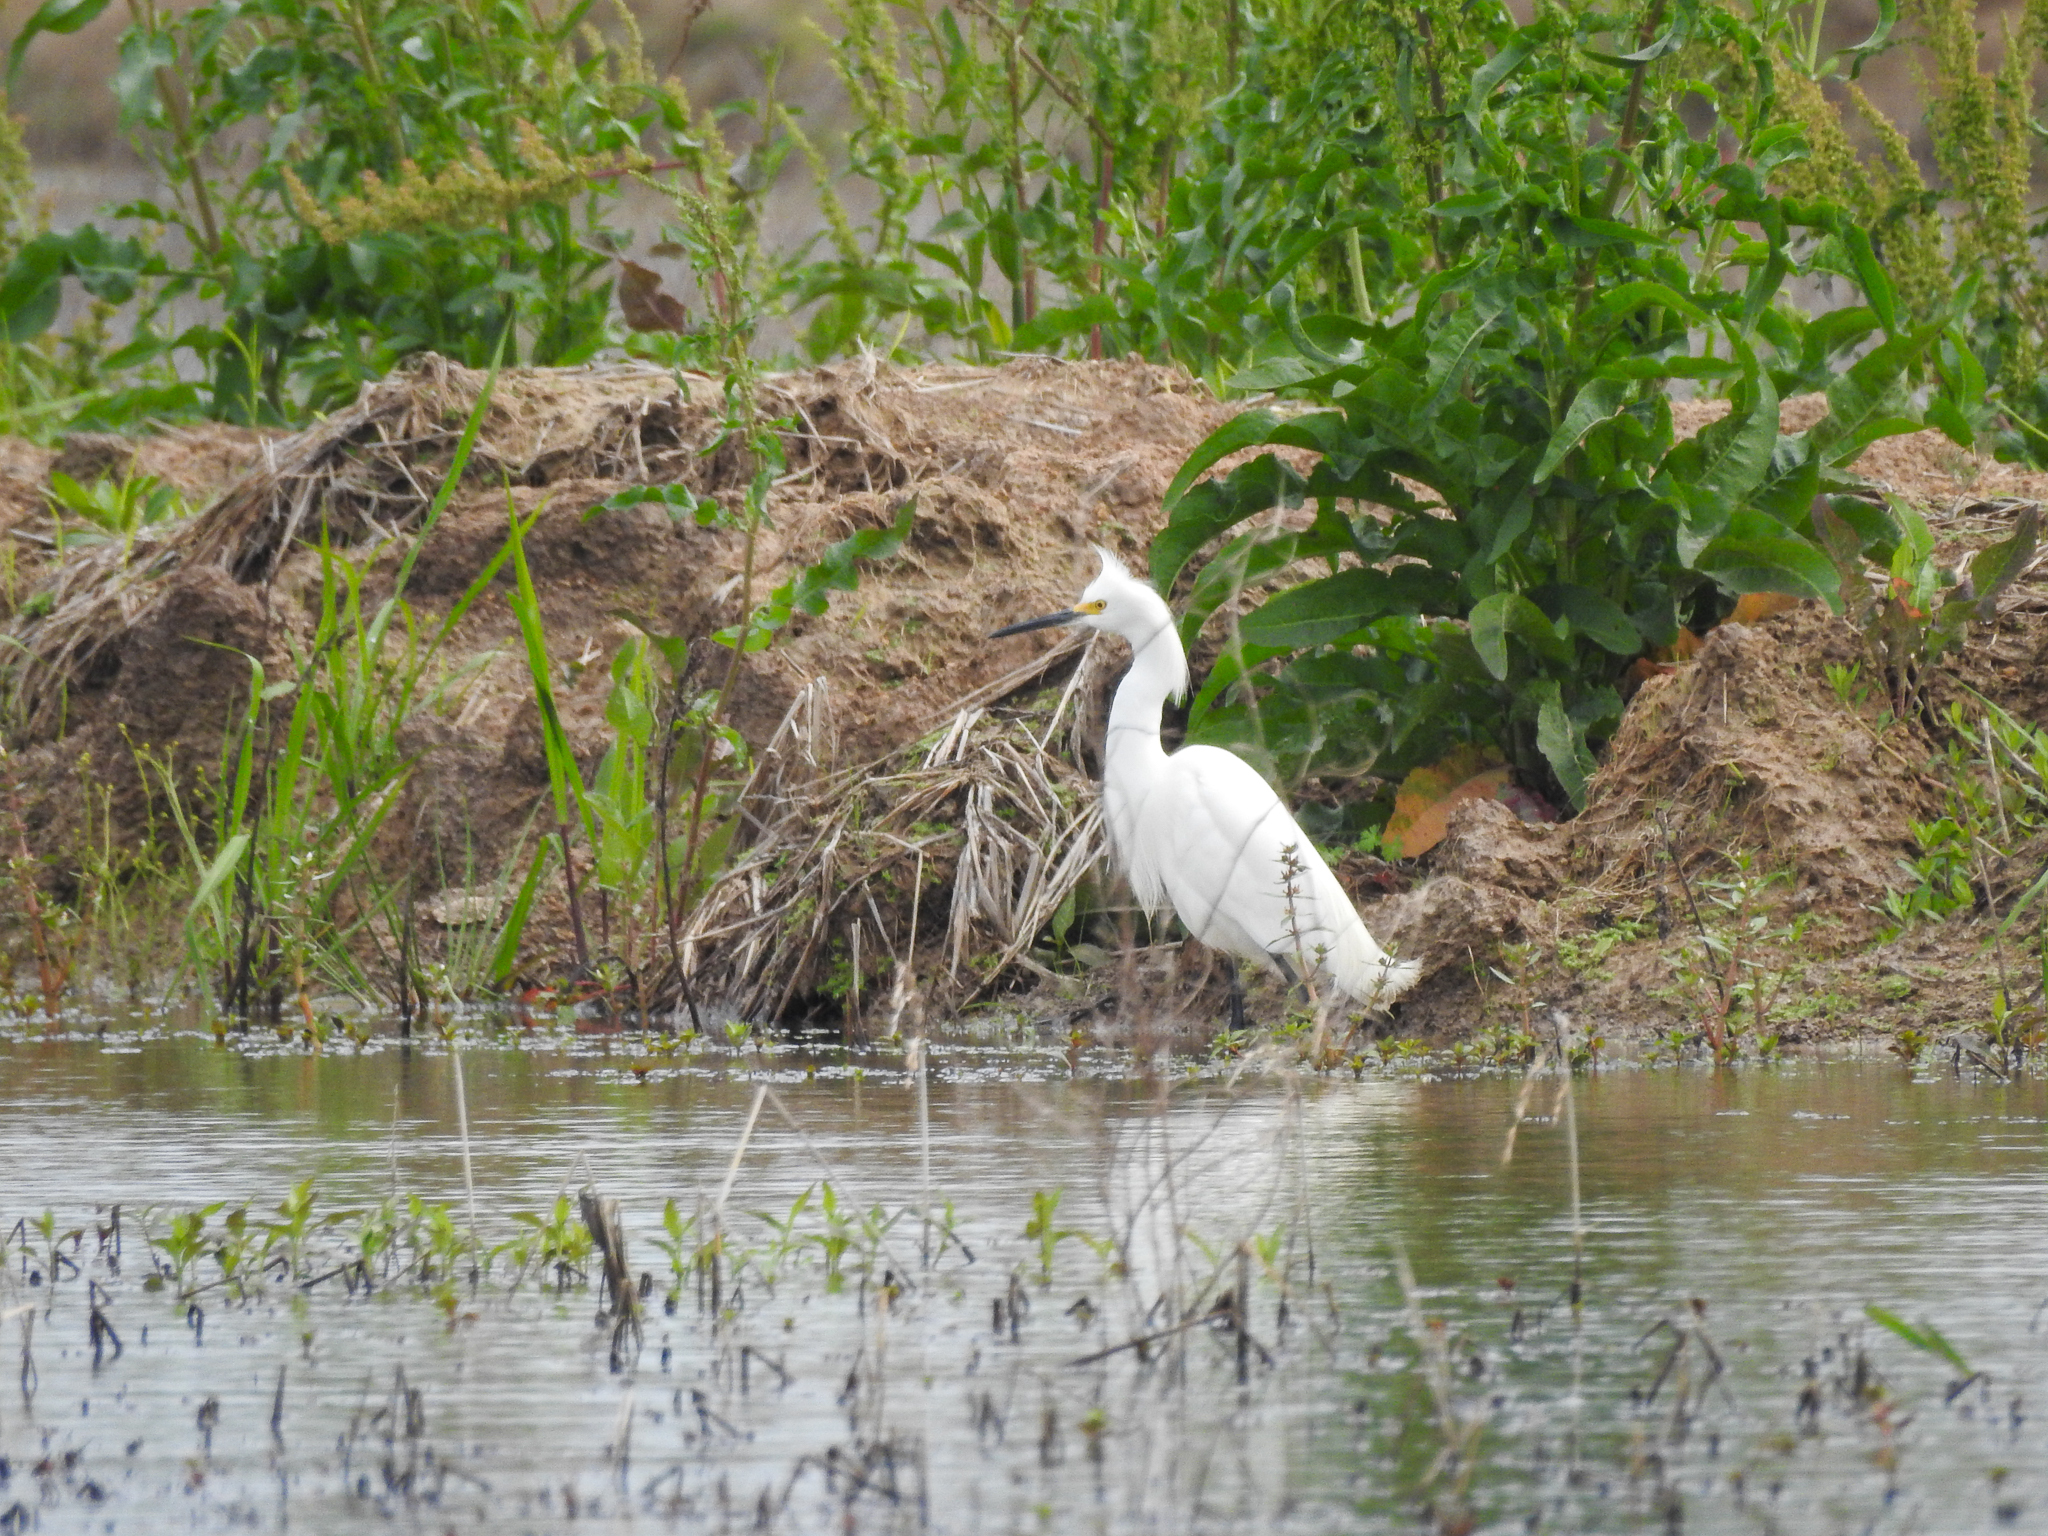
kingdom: Animalia
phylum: Chordata
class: Aves
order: Pelecaniformes
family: Ardeidae
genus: Egretta
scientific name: Egretta thula
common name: Snowy egret
